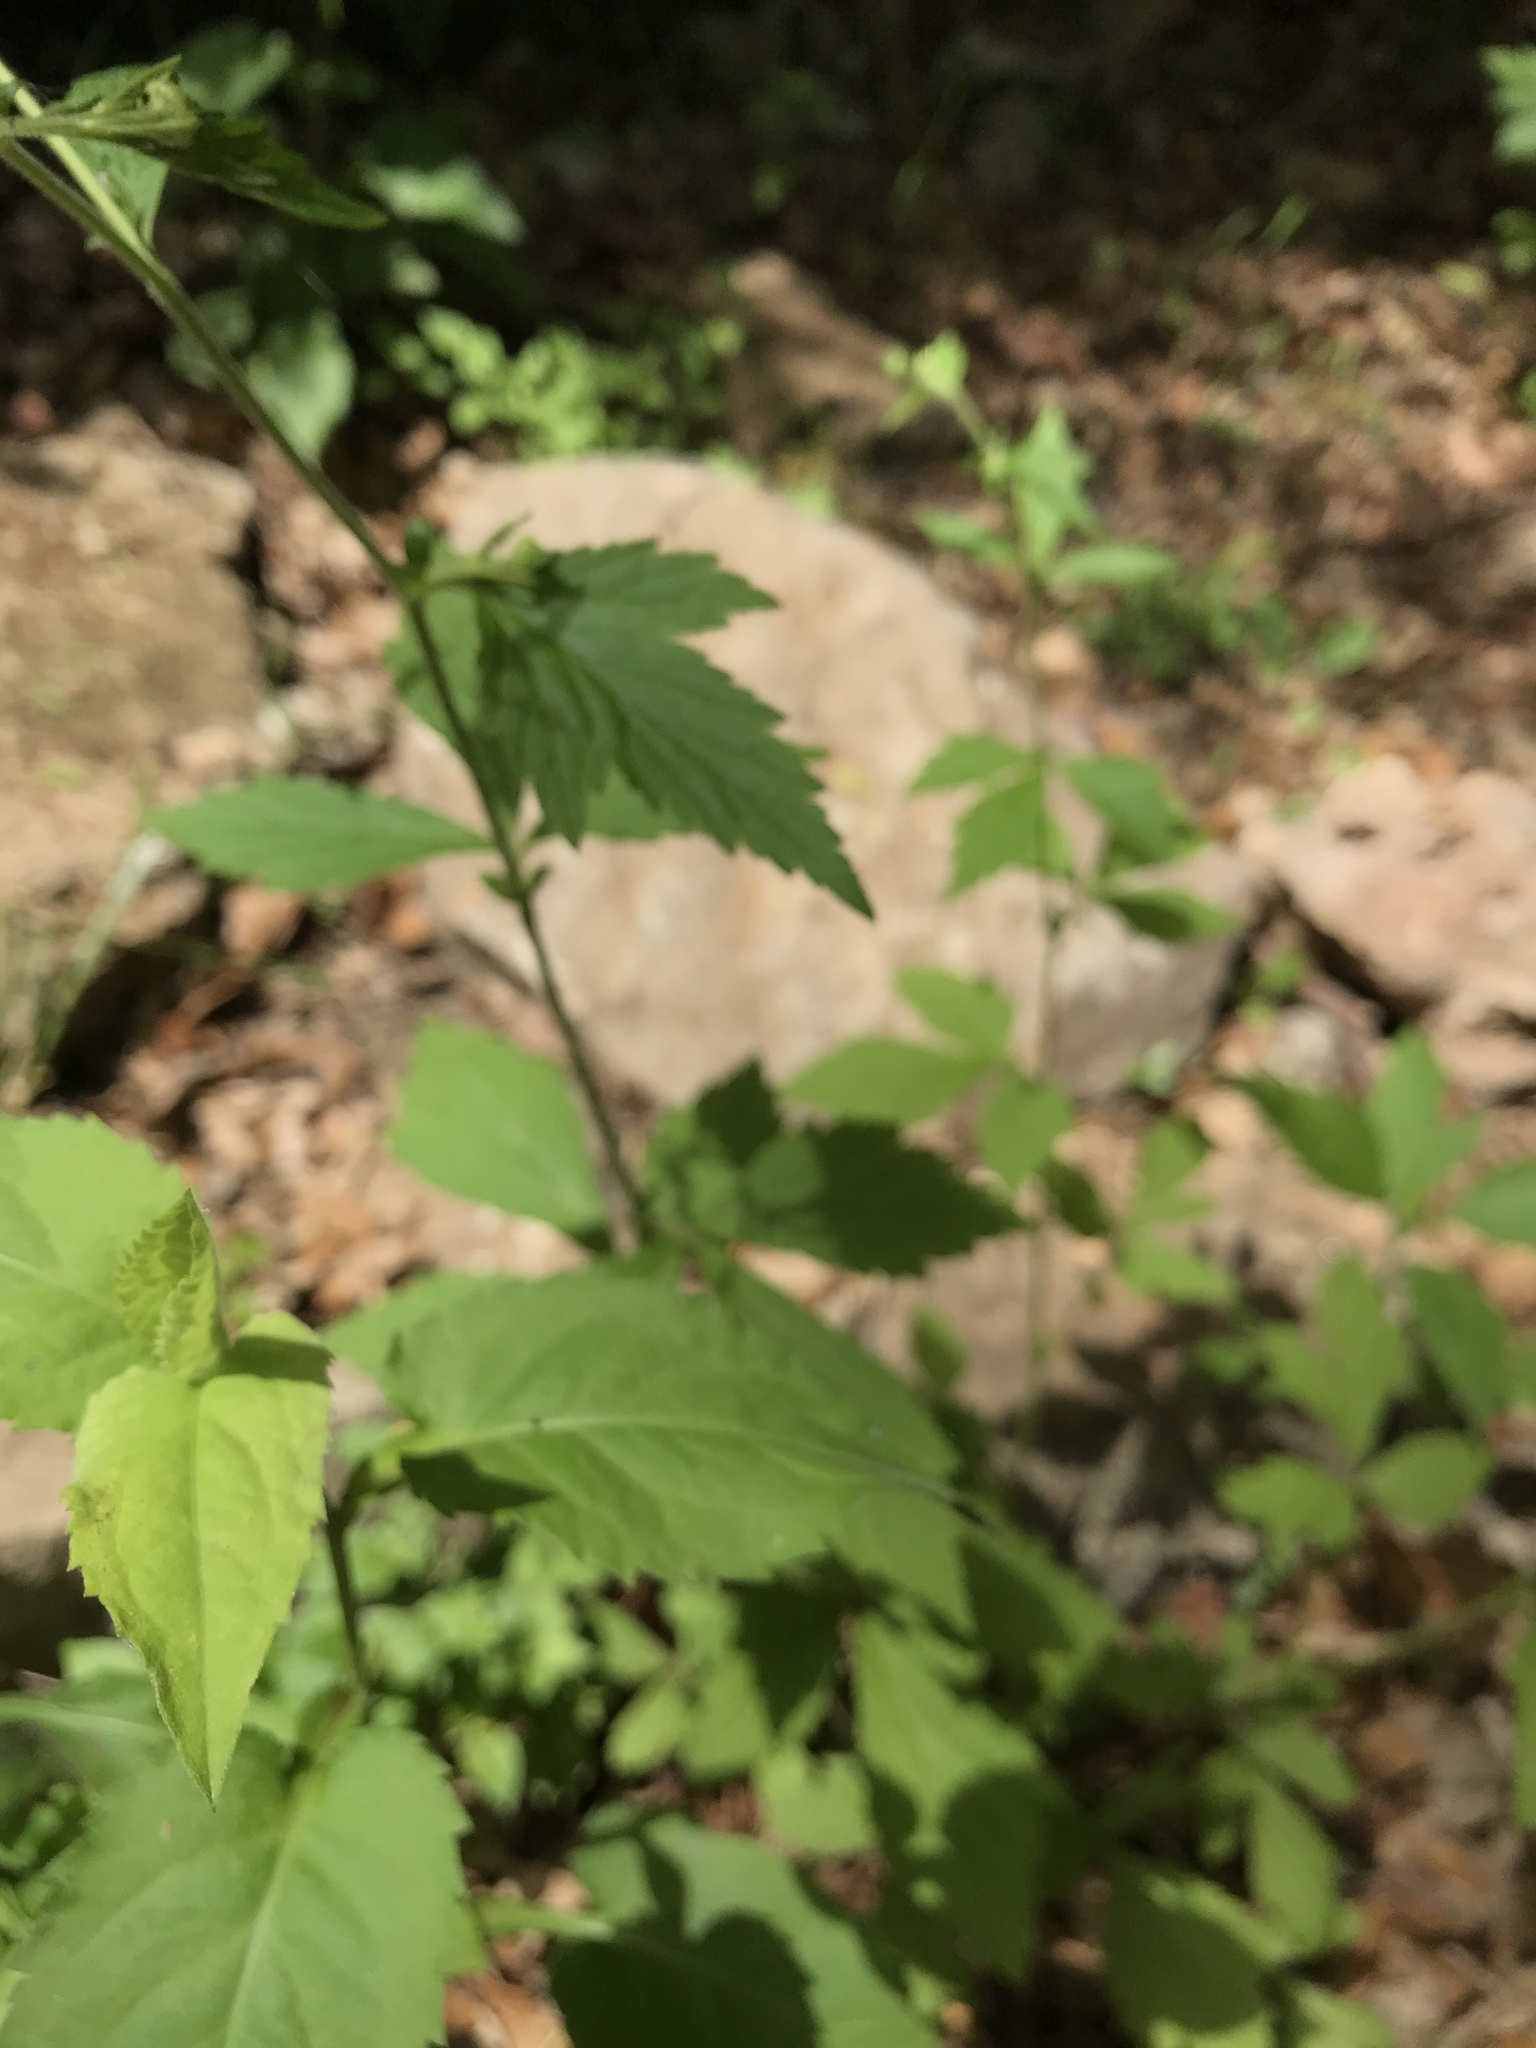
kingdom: Plantae
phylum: Tracheophyta
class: Magnoliopsida
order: Rosales
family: Rosaceae
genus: Geum
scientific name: Geum canadense
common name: White avens
